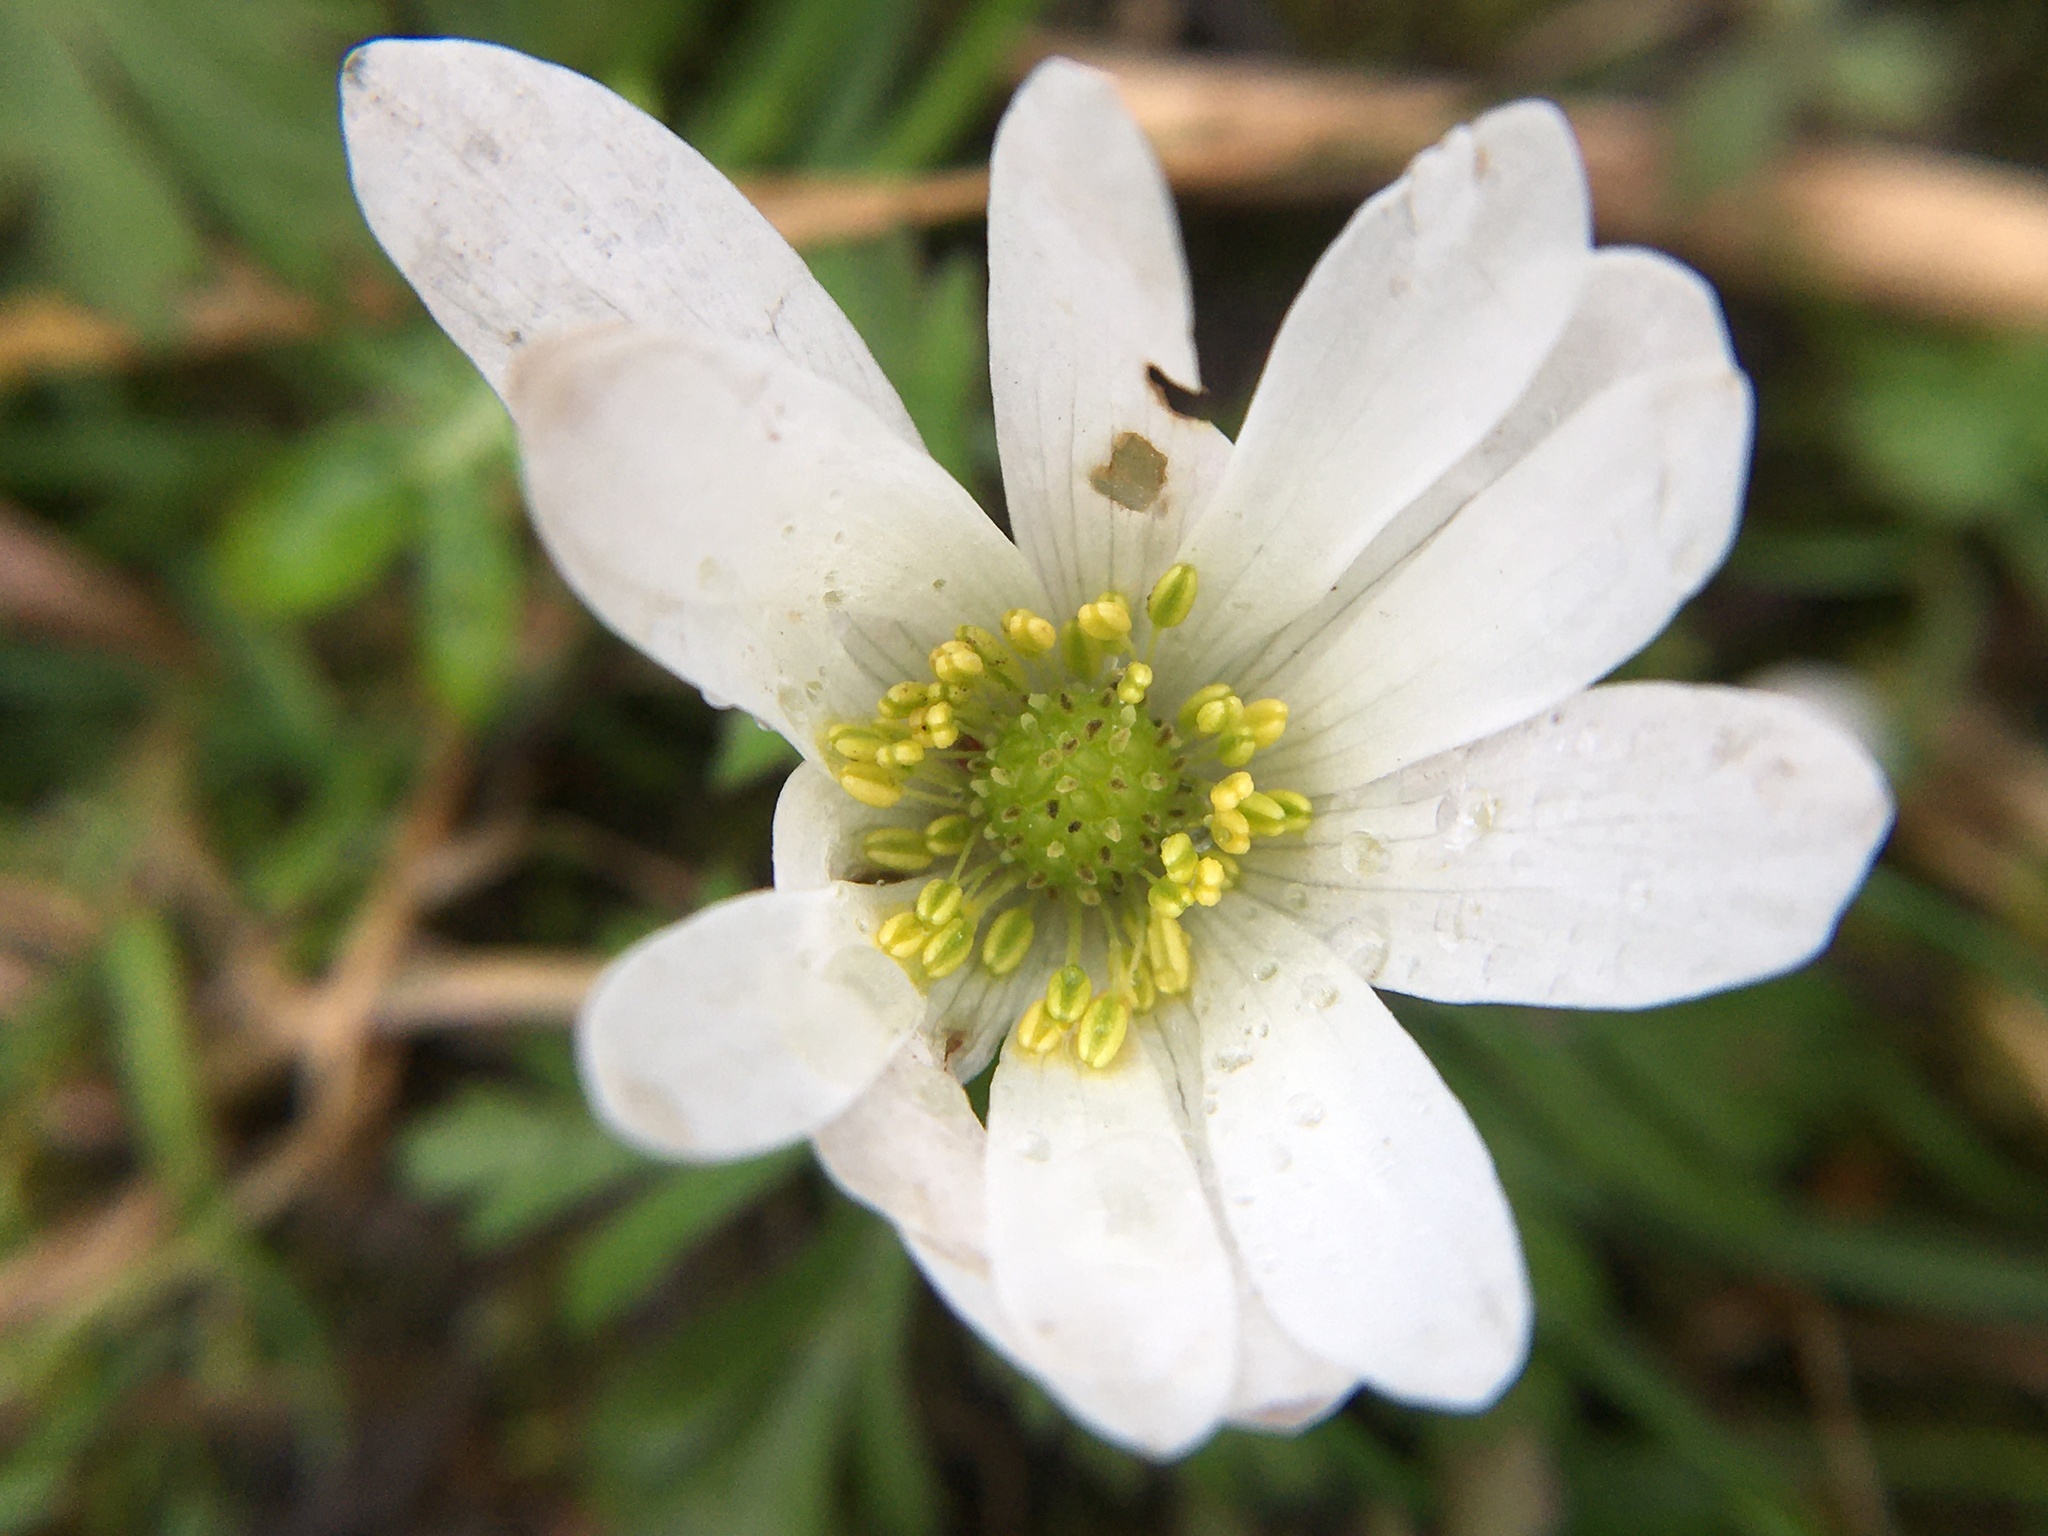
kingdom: Plantae
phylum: Tracheophyta
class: Magnoliopsida
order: Ranunculales
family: Ranunculaceae
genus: Anemone
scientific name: Anemone nemorosa
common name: Wood anemone
